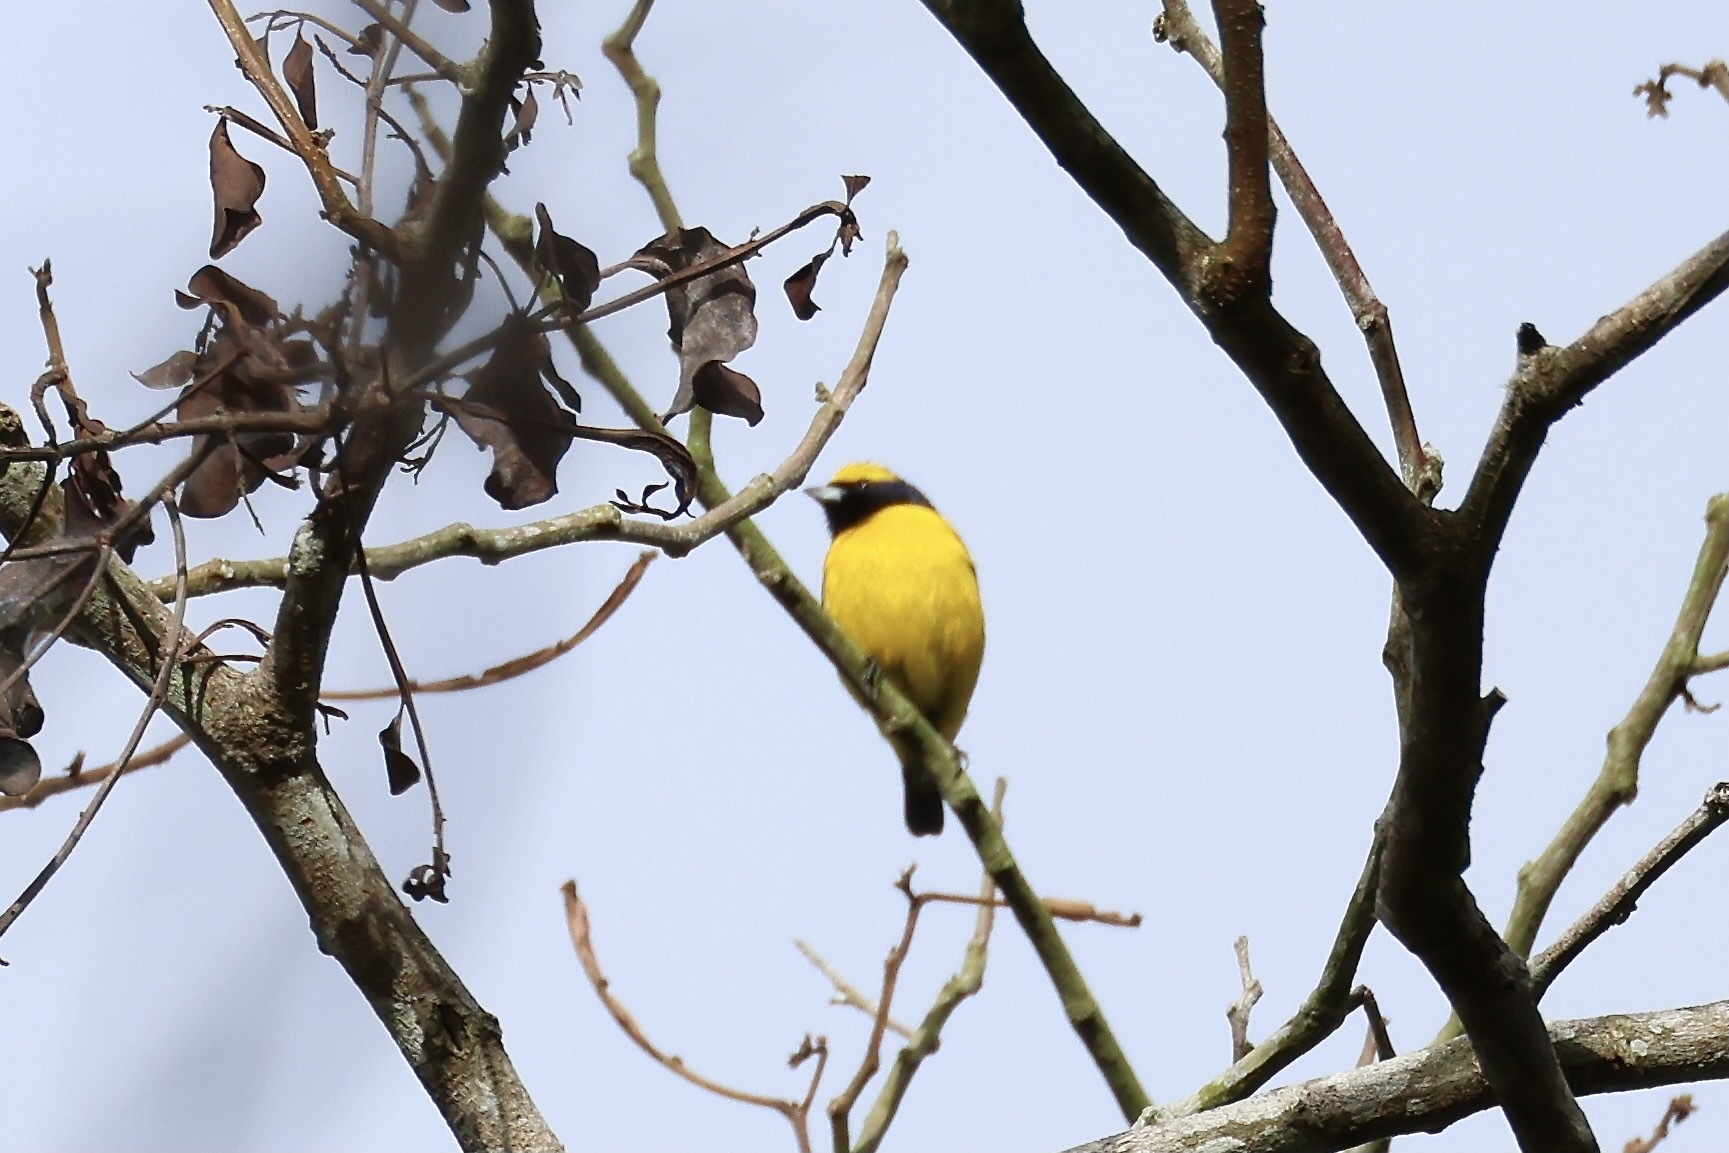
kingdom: Animalia
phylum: Chordata
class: Aves
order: Passeriformes
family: Fringillidae
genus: Euphonia
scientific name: Euphonia luteicapilla
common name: Yellow-crowned euphonia
